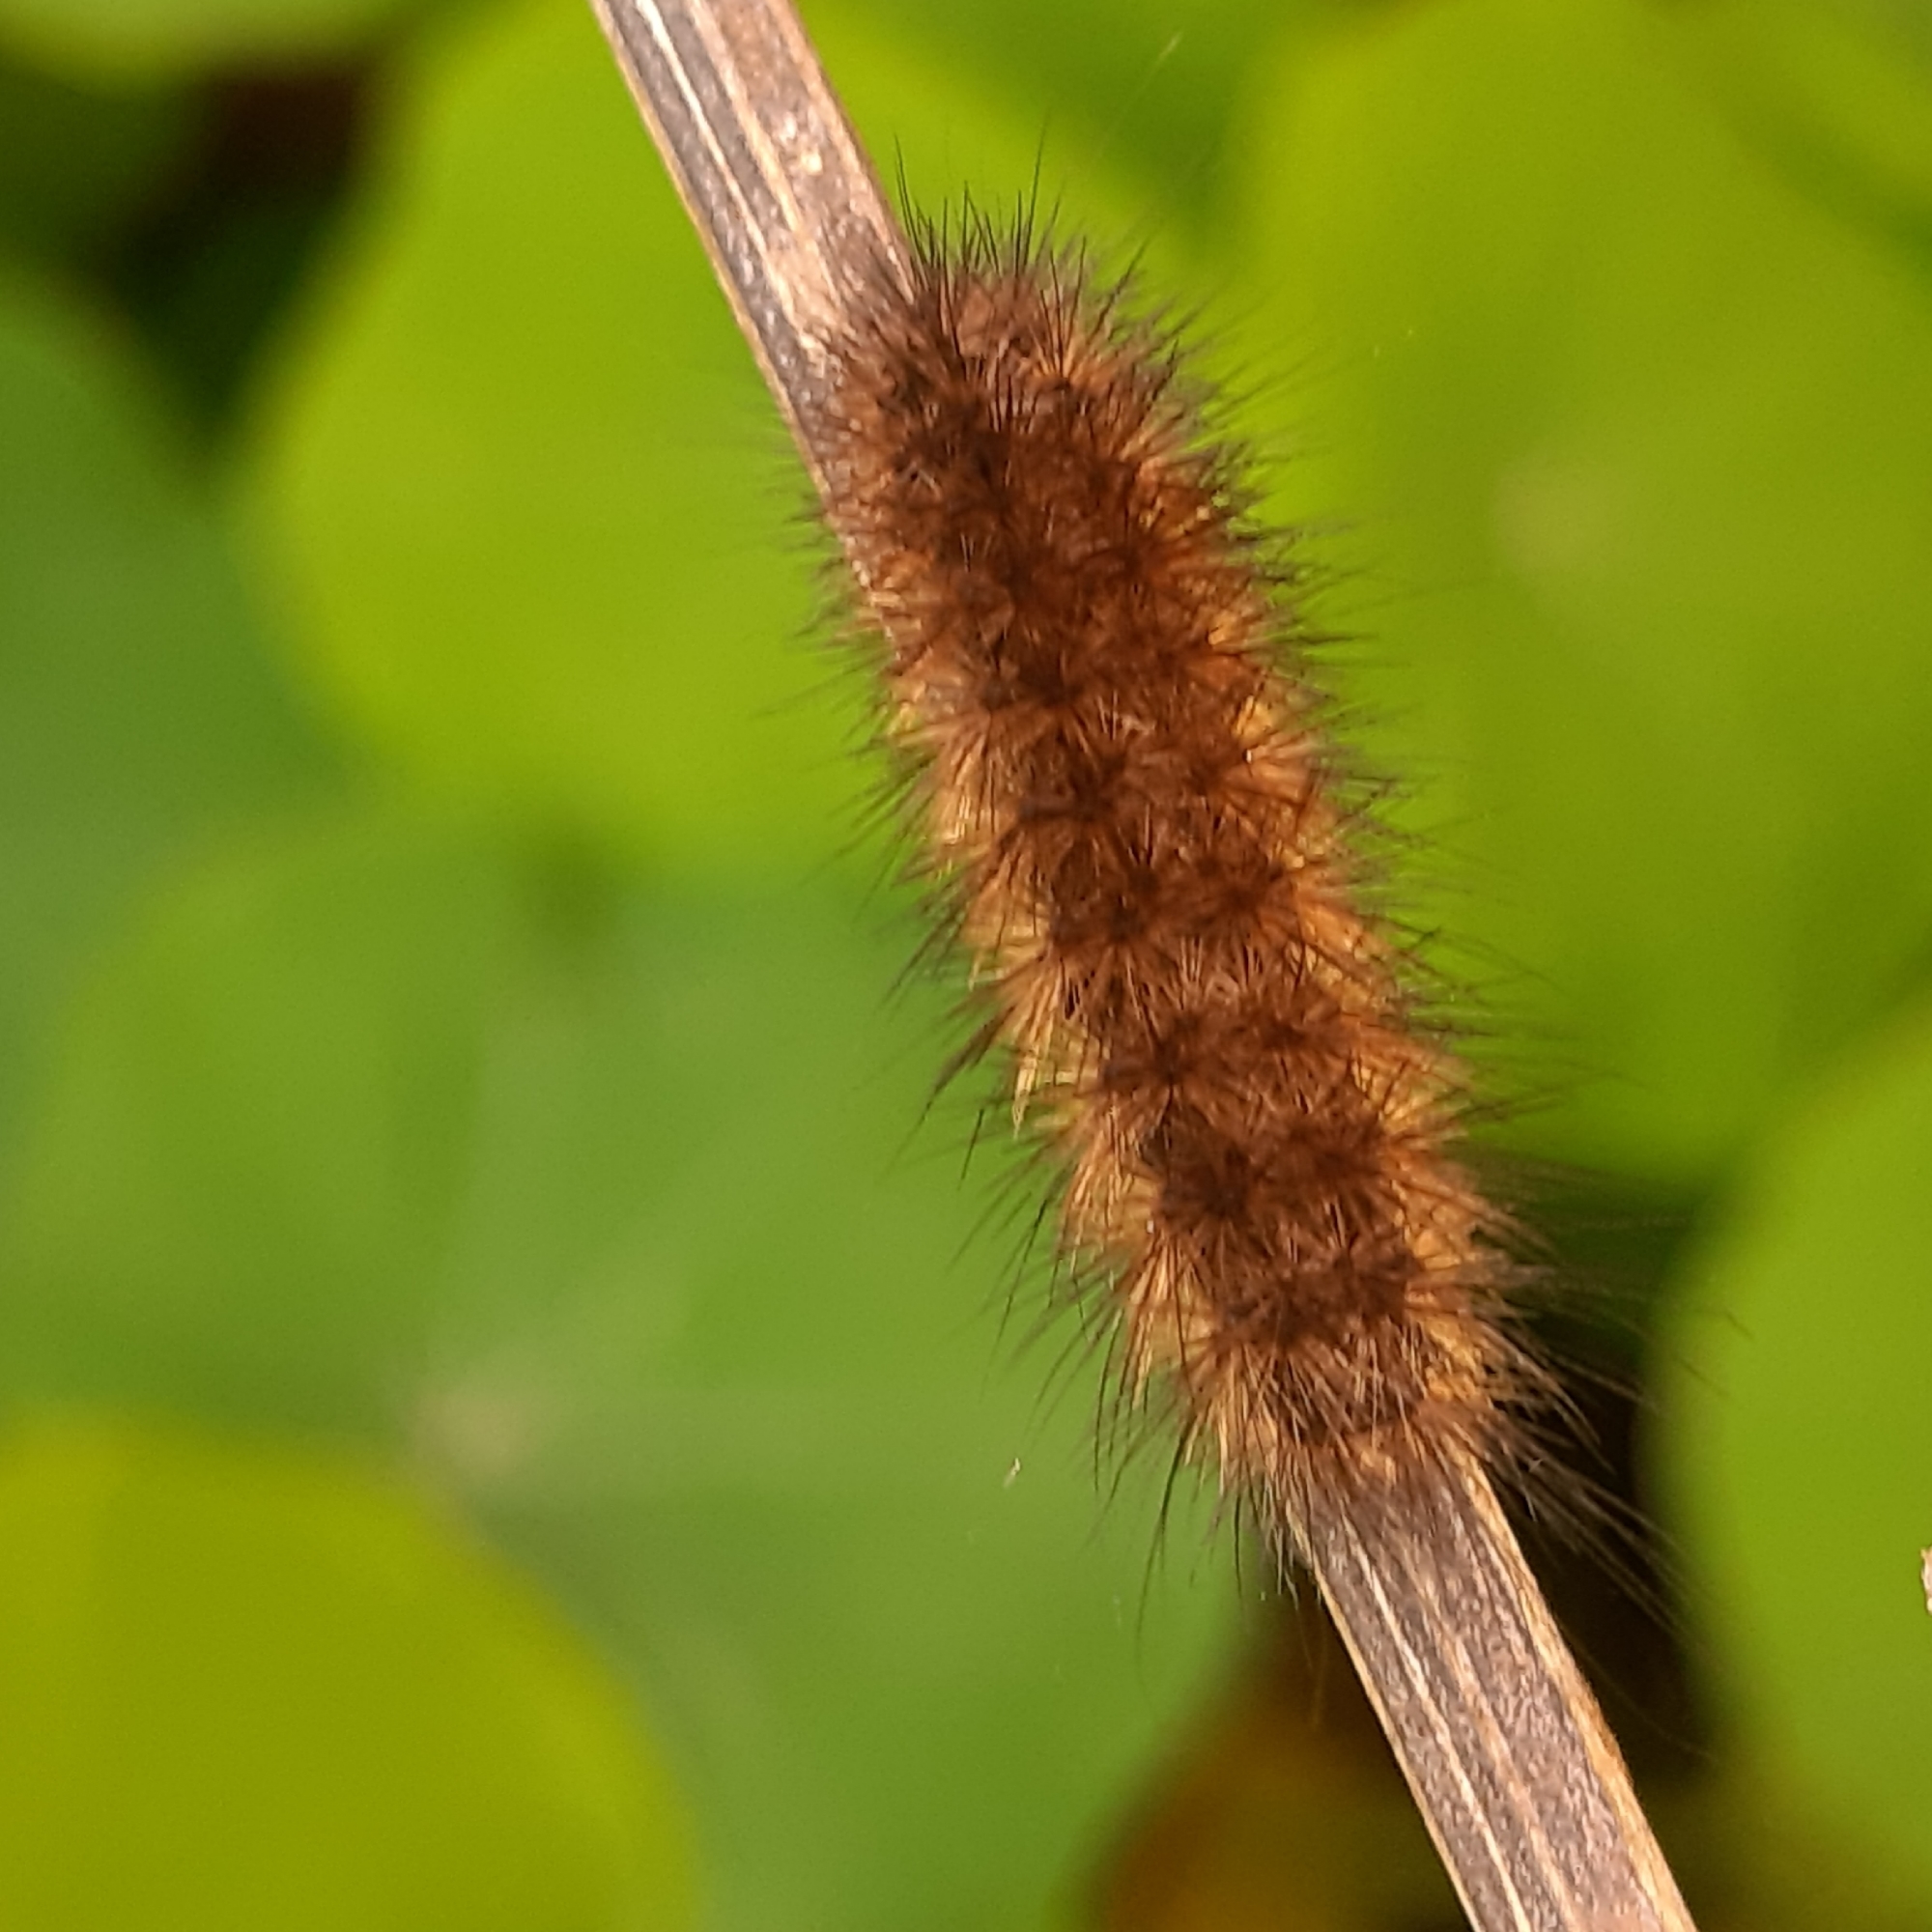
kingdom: Animalia
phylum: Arthropoda
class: Insecta
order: Lepidoptera
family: Erebidae
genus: Phragmatobia
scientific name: Phragmatobia fuliginosa
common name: Ruby tiger
